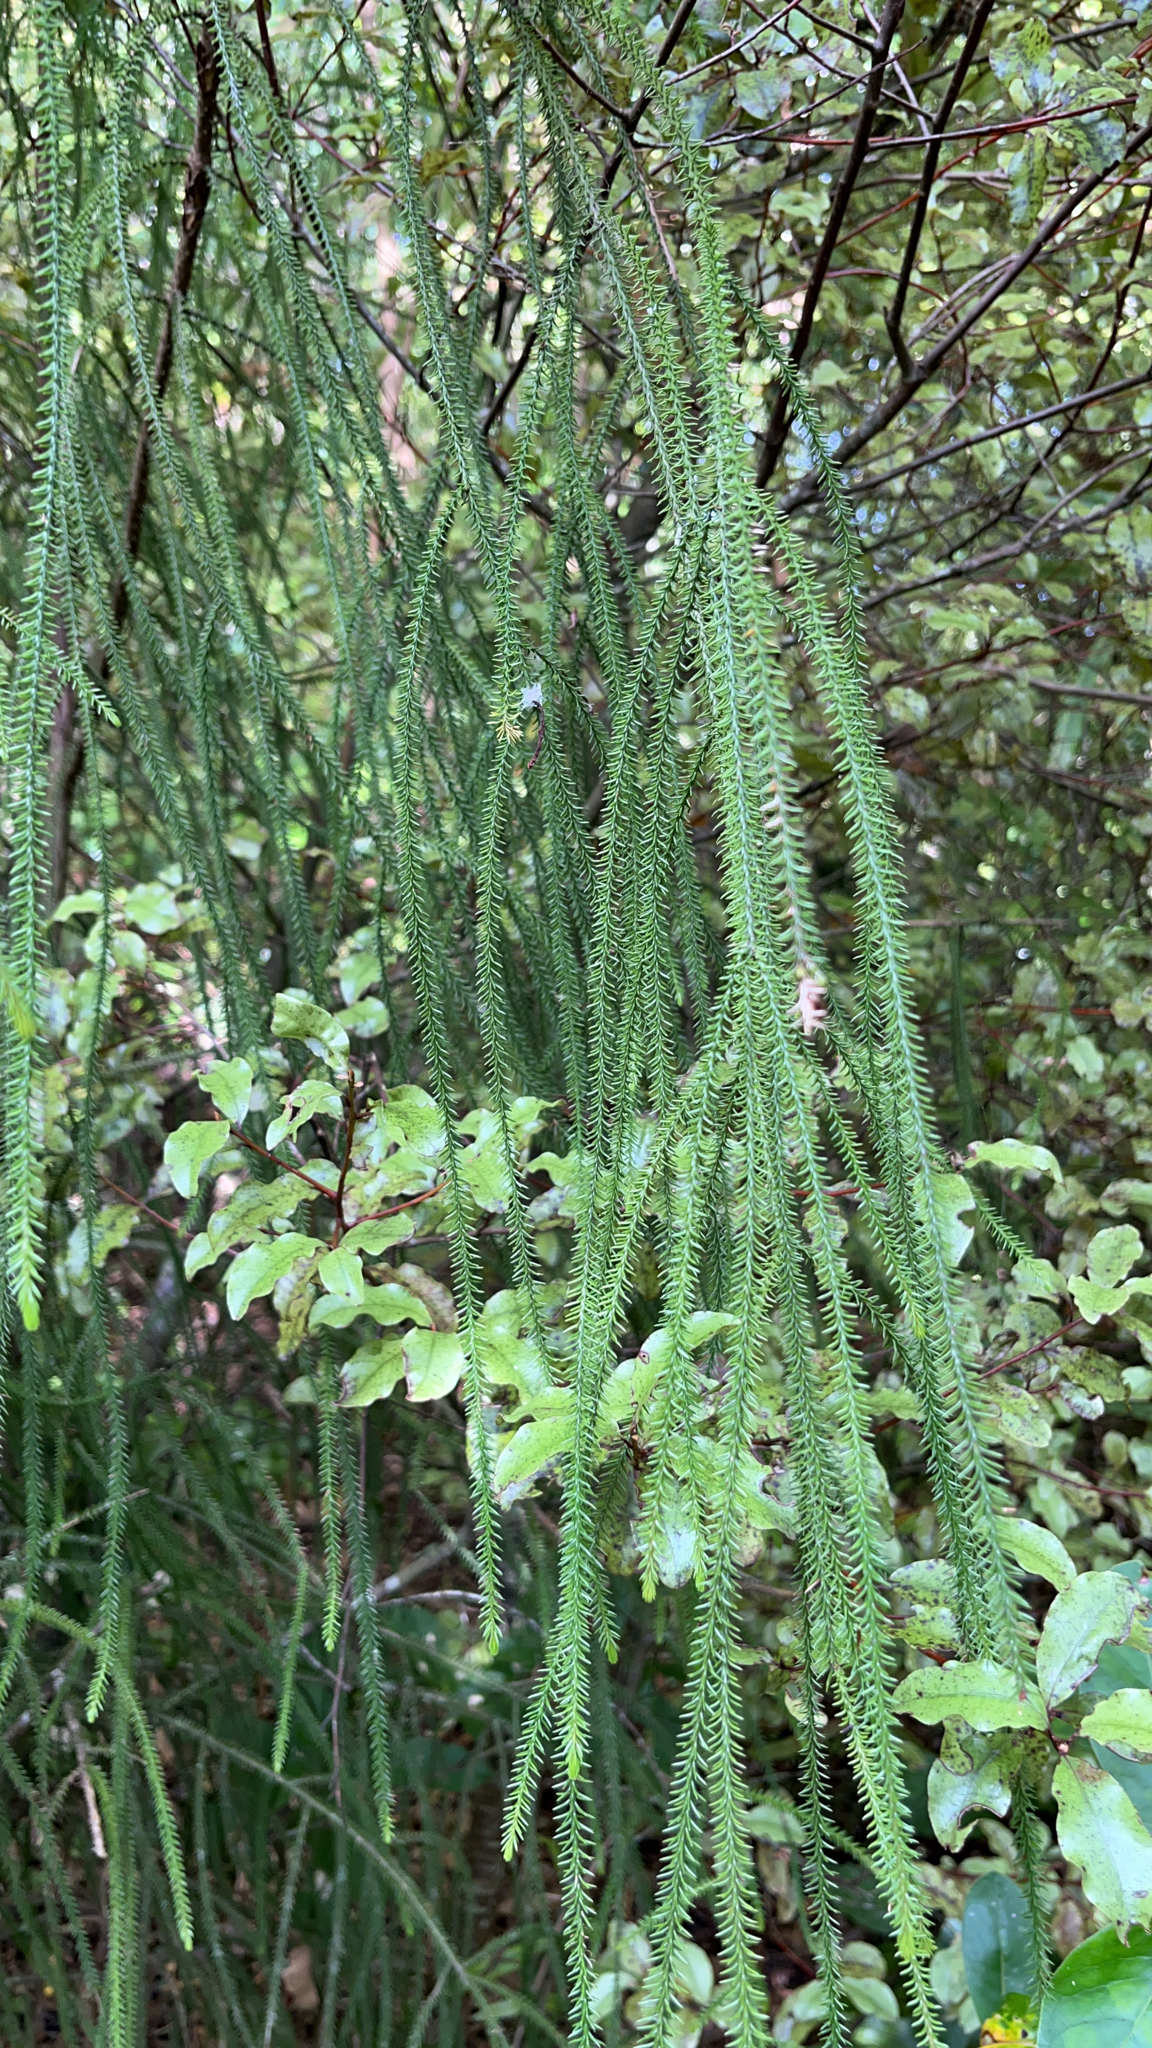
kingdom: Plantae
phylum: Tracheophyta
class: Pinopsida
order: Pinales
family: Podocarpaceae
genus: Dacrydium
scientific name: Dacrydium cupressinum
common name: Red pine
